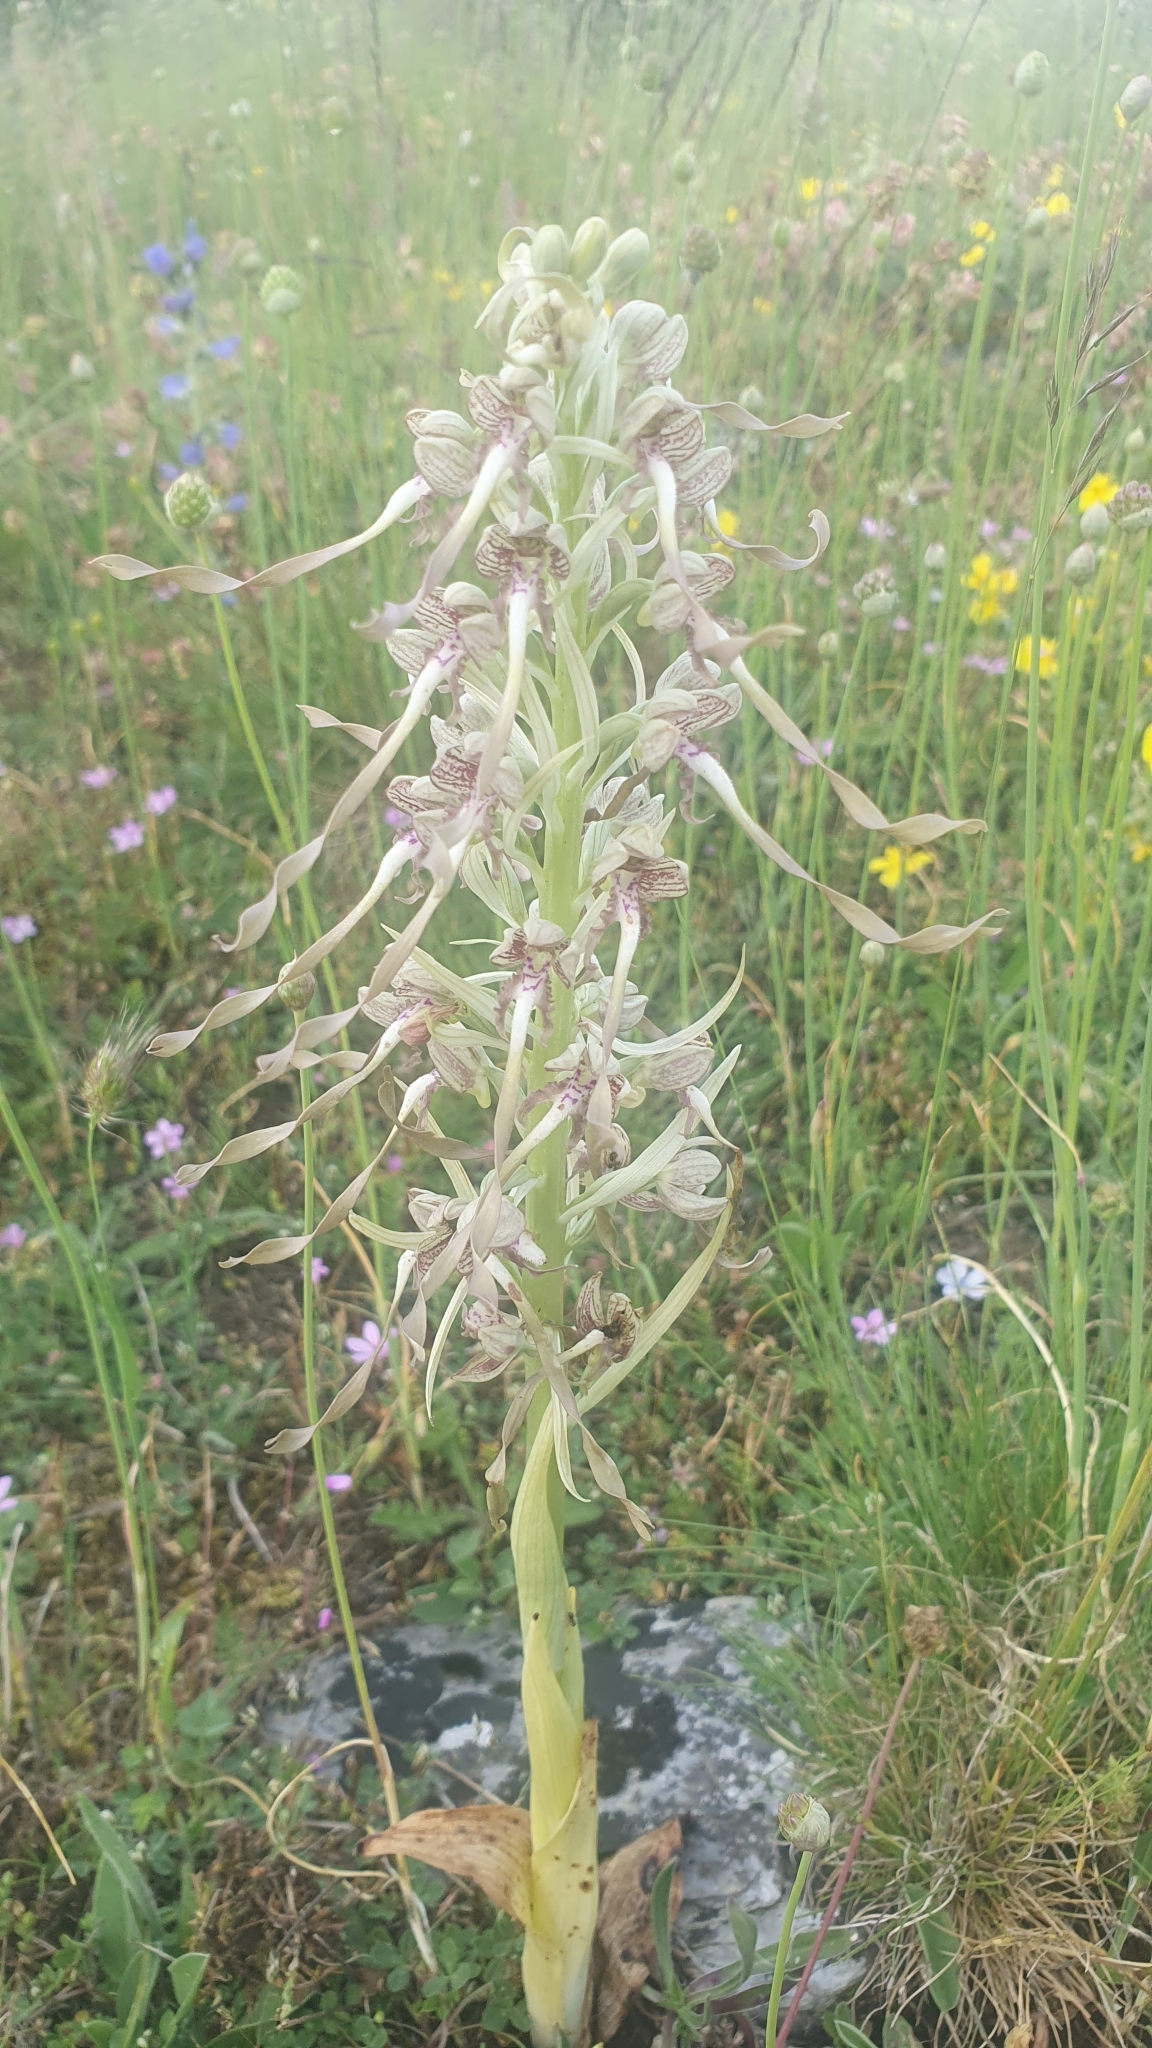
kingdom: Plantae
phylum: Tracheophyta
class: Liliopsida
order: Asparagales
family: Orchidaceae
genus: Himantoglossum
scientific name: Himantoglossum hircinum
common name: Lizard orchid
